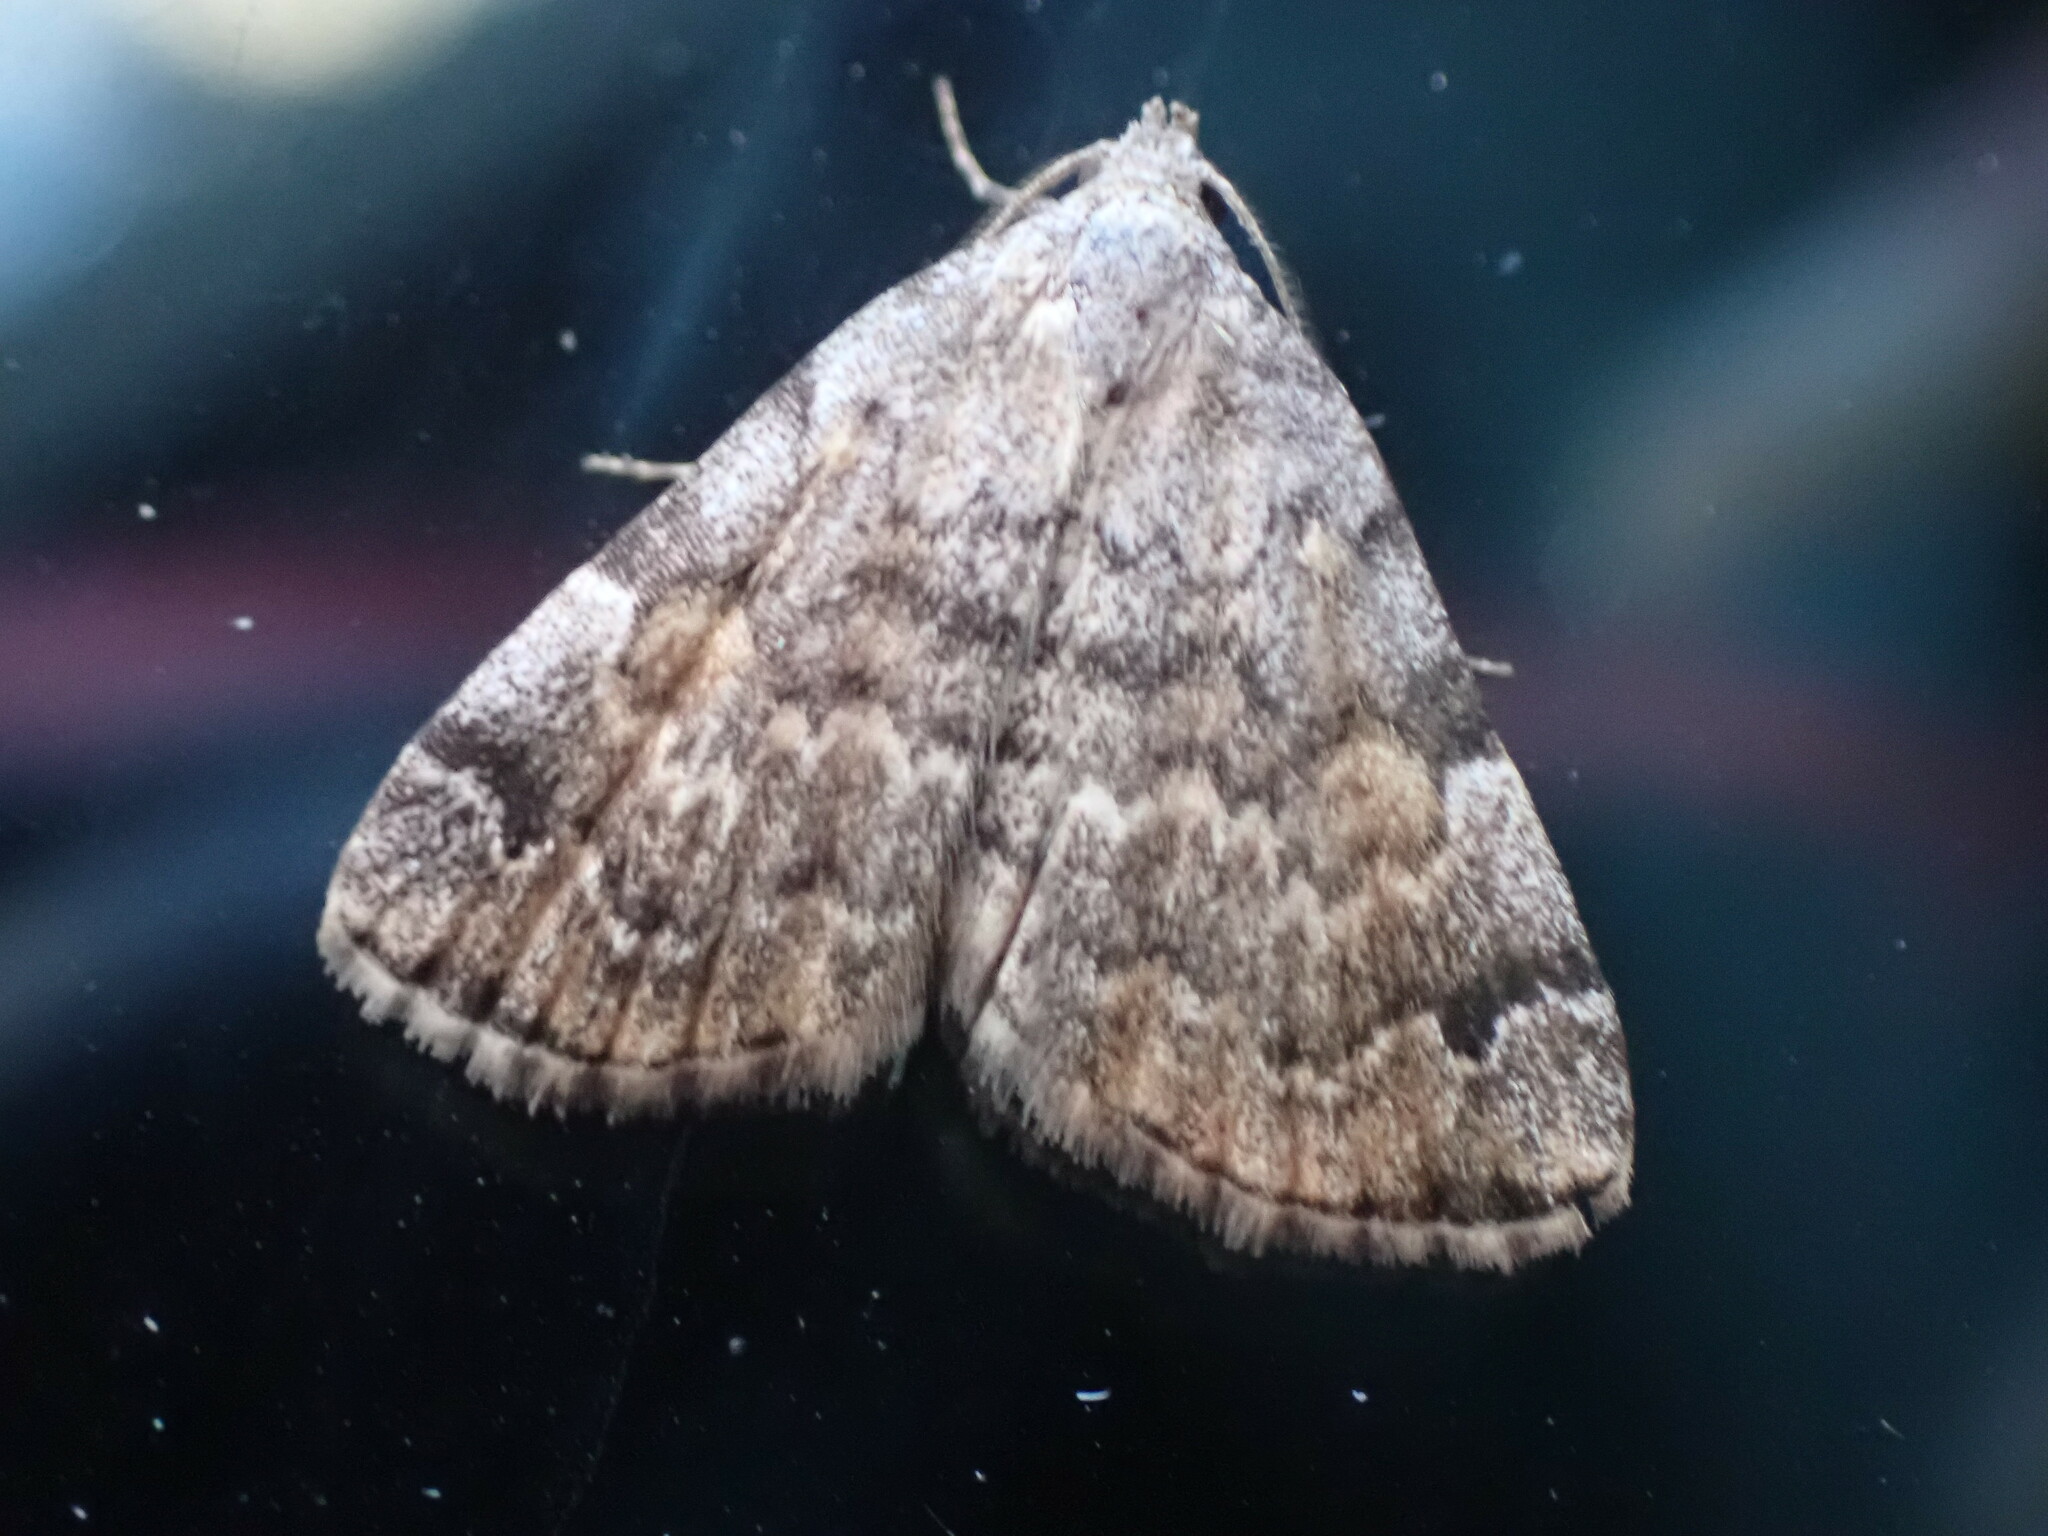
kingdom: Animalia
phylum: Arthropoda
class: Insecta
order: Lepidoptera
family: Erebidae
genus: Idia
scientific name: Idia americalis
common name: American idia moth
